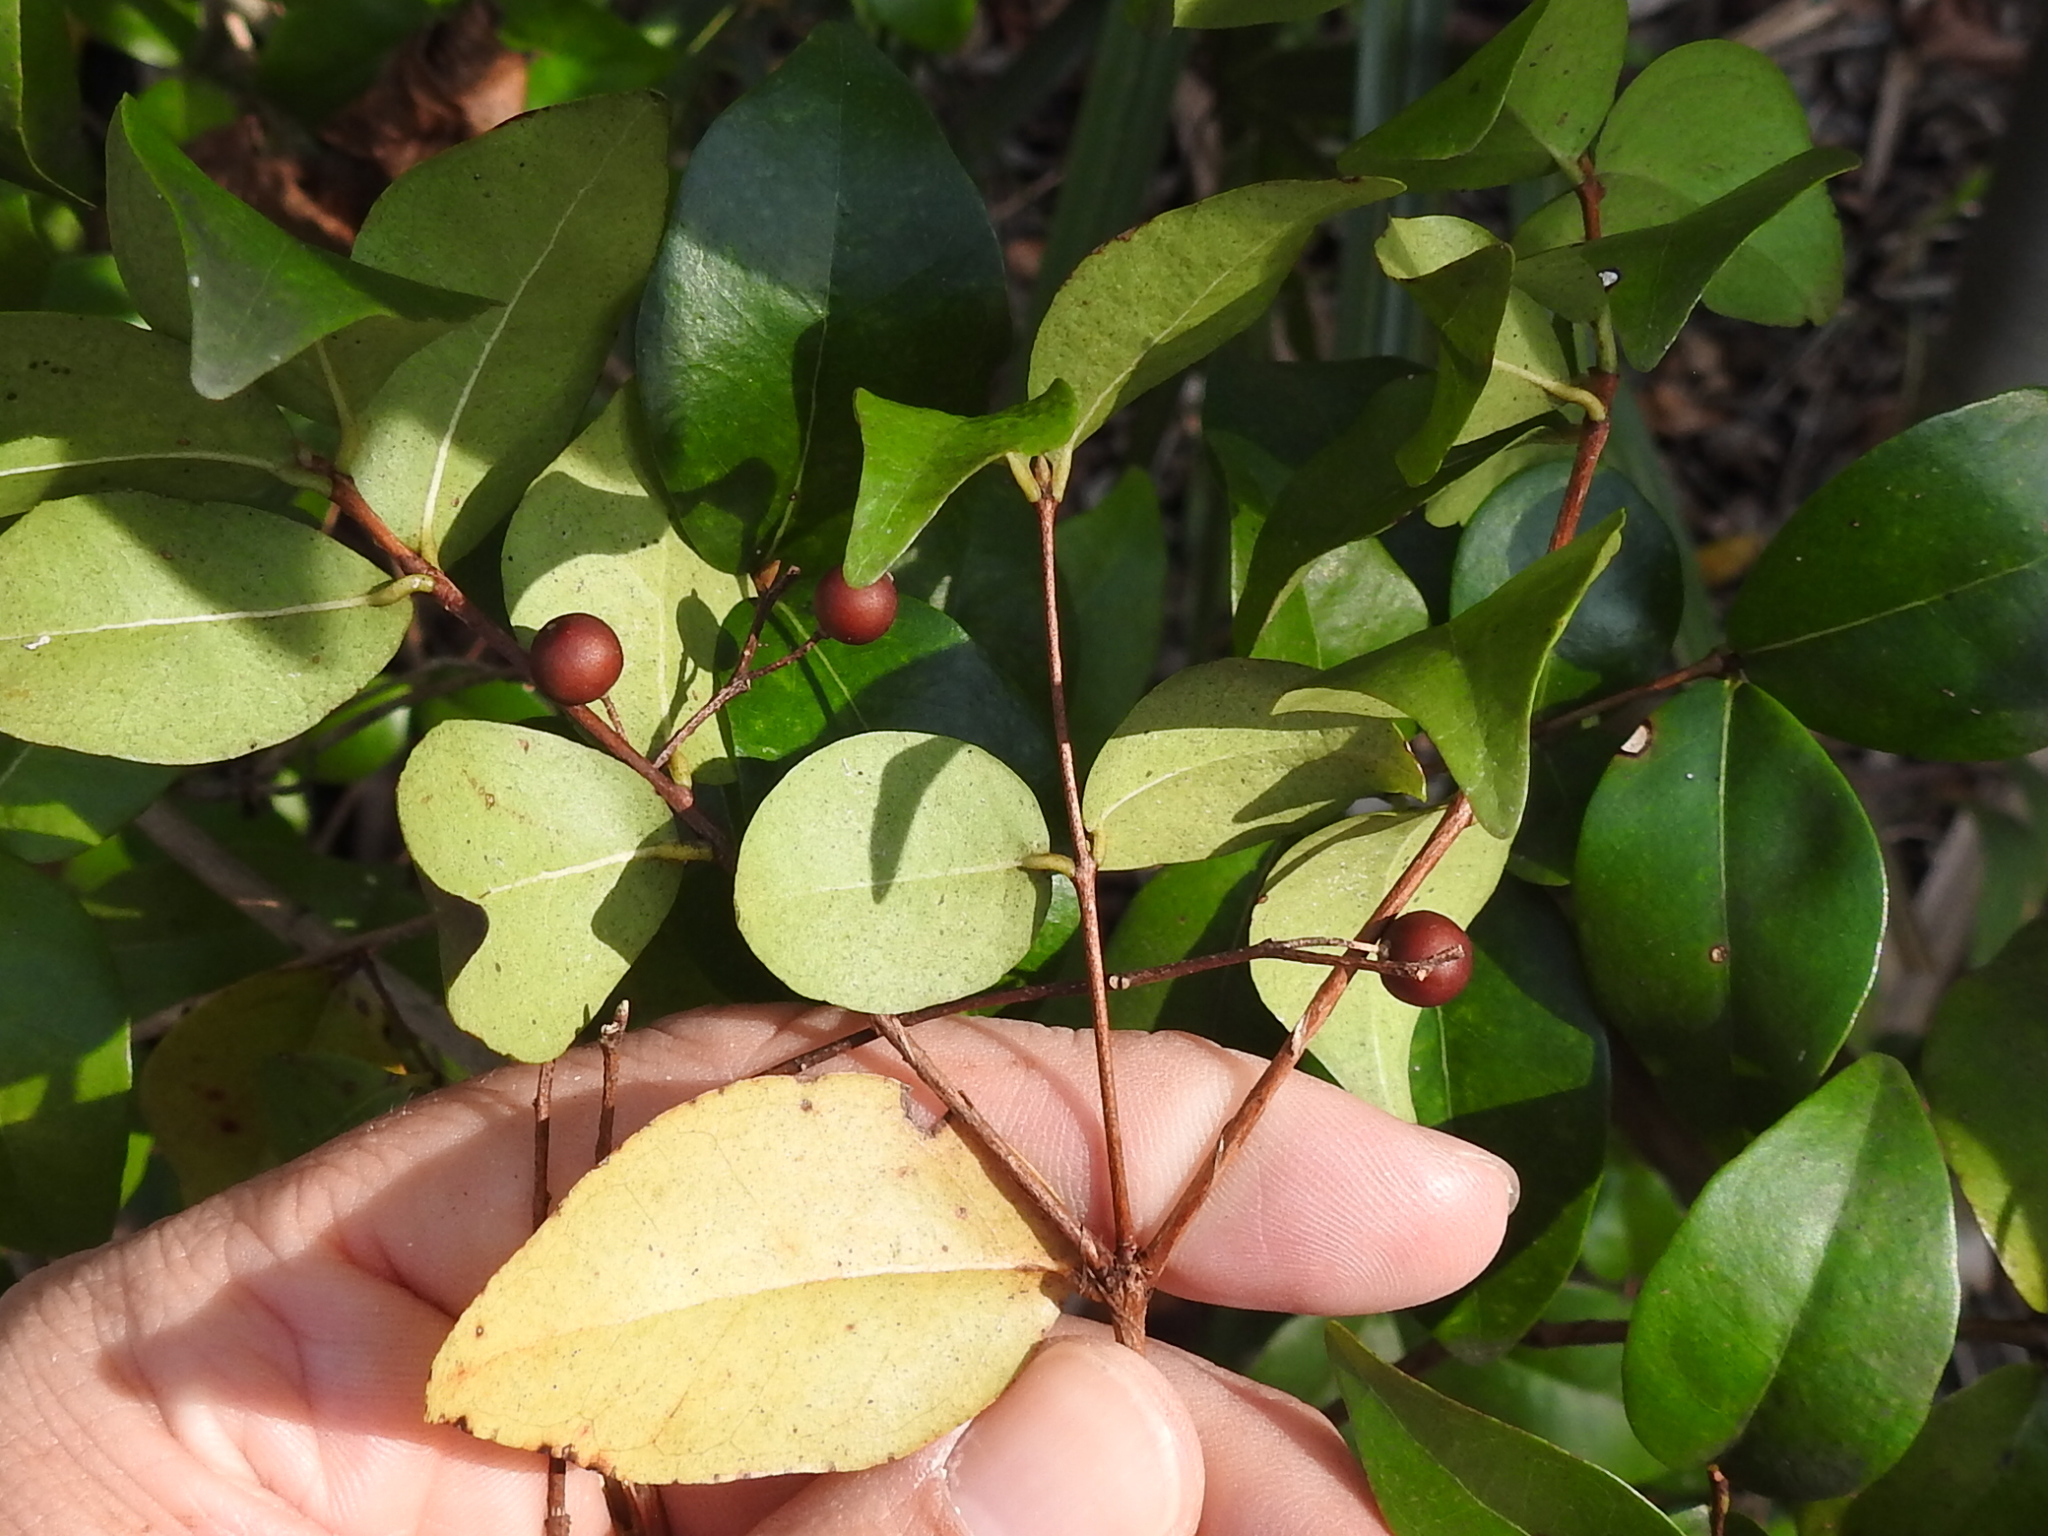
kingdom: Plantae
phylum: Tracheophyta
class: Magnoliopsida
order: Myrtales
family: Myrtaceae
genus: Eugenia
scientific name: Eugenia uniflora
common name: Surinam cherry
